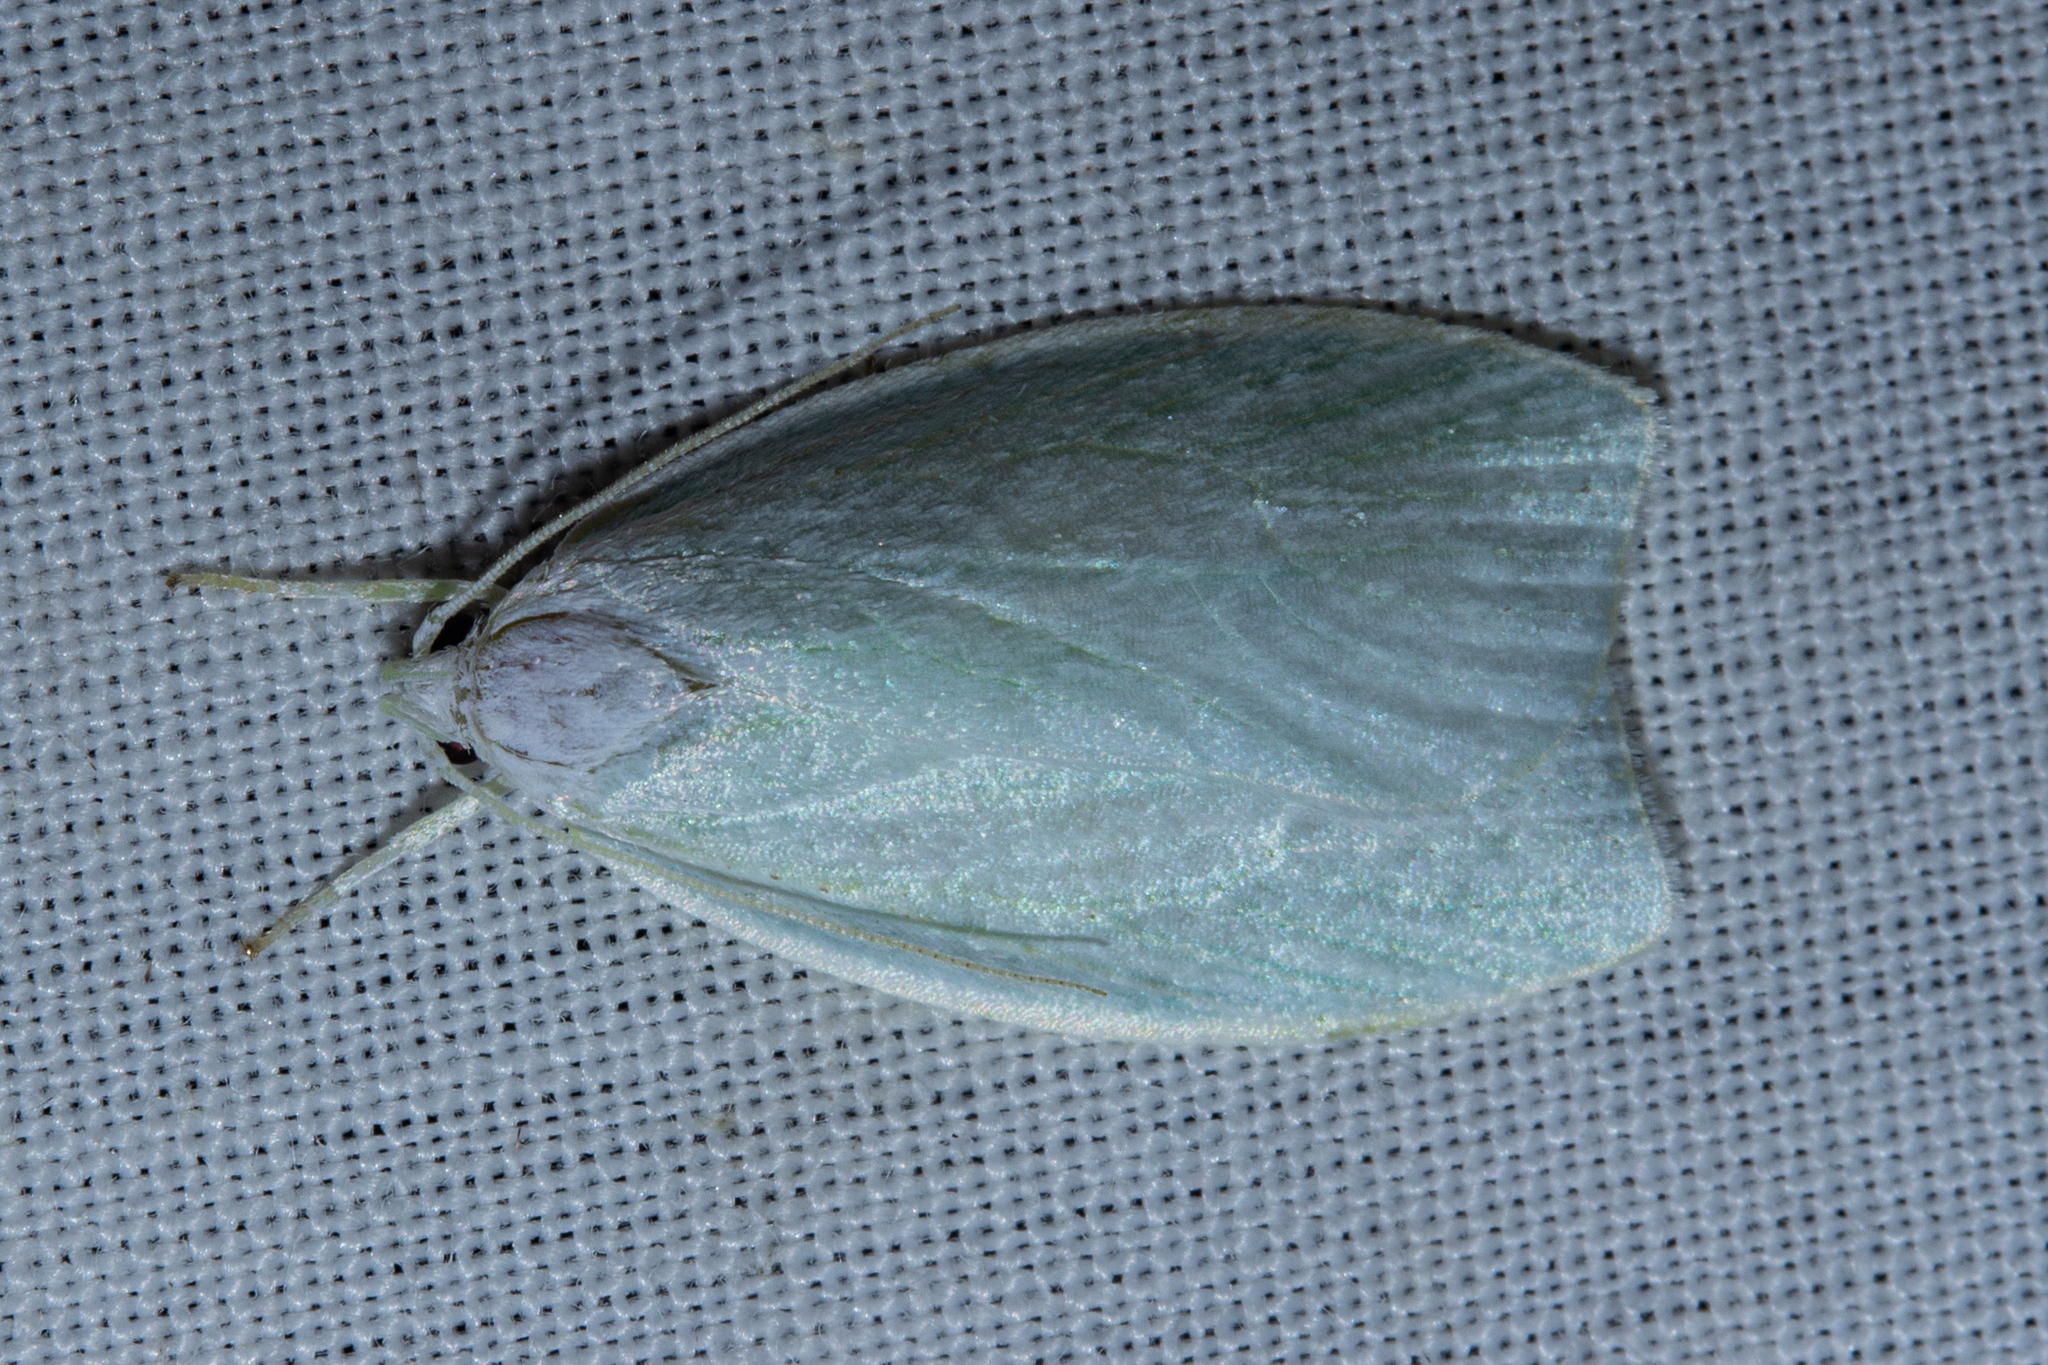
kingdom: Animalia
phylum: Arthropoda
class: Insecta
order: Lepidoptera
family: Oecophoridae
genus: Nymphostola
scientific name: Nymphostola galactina
